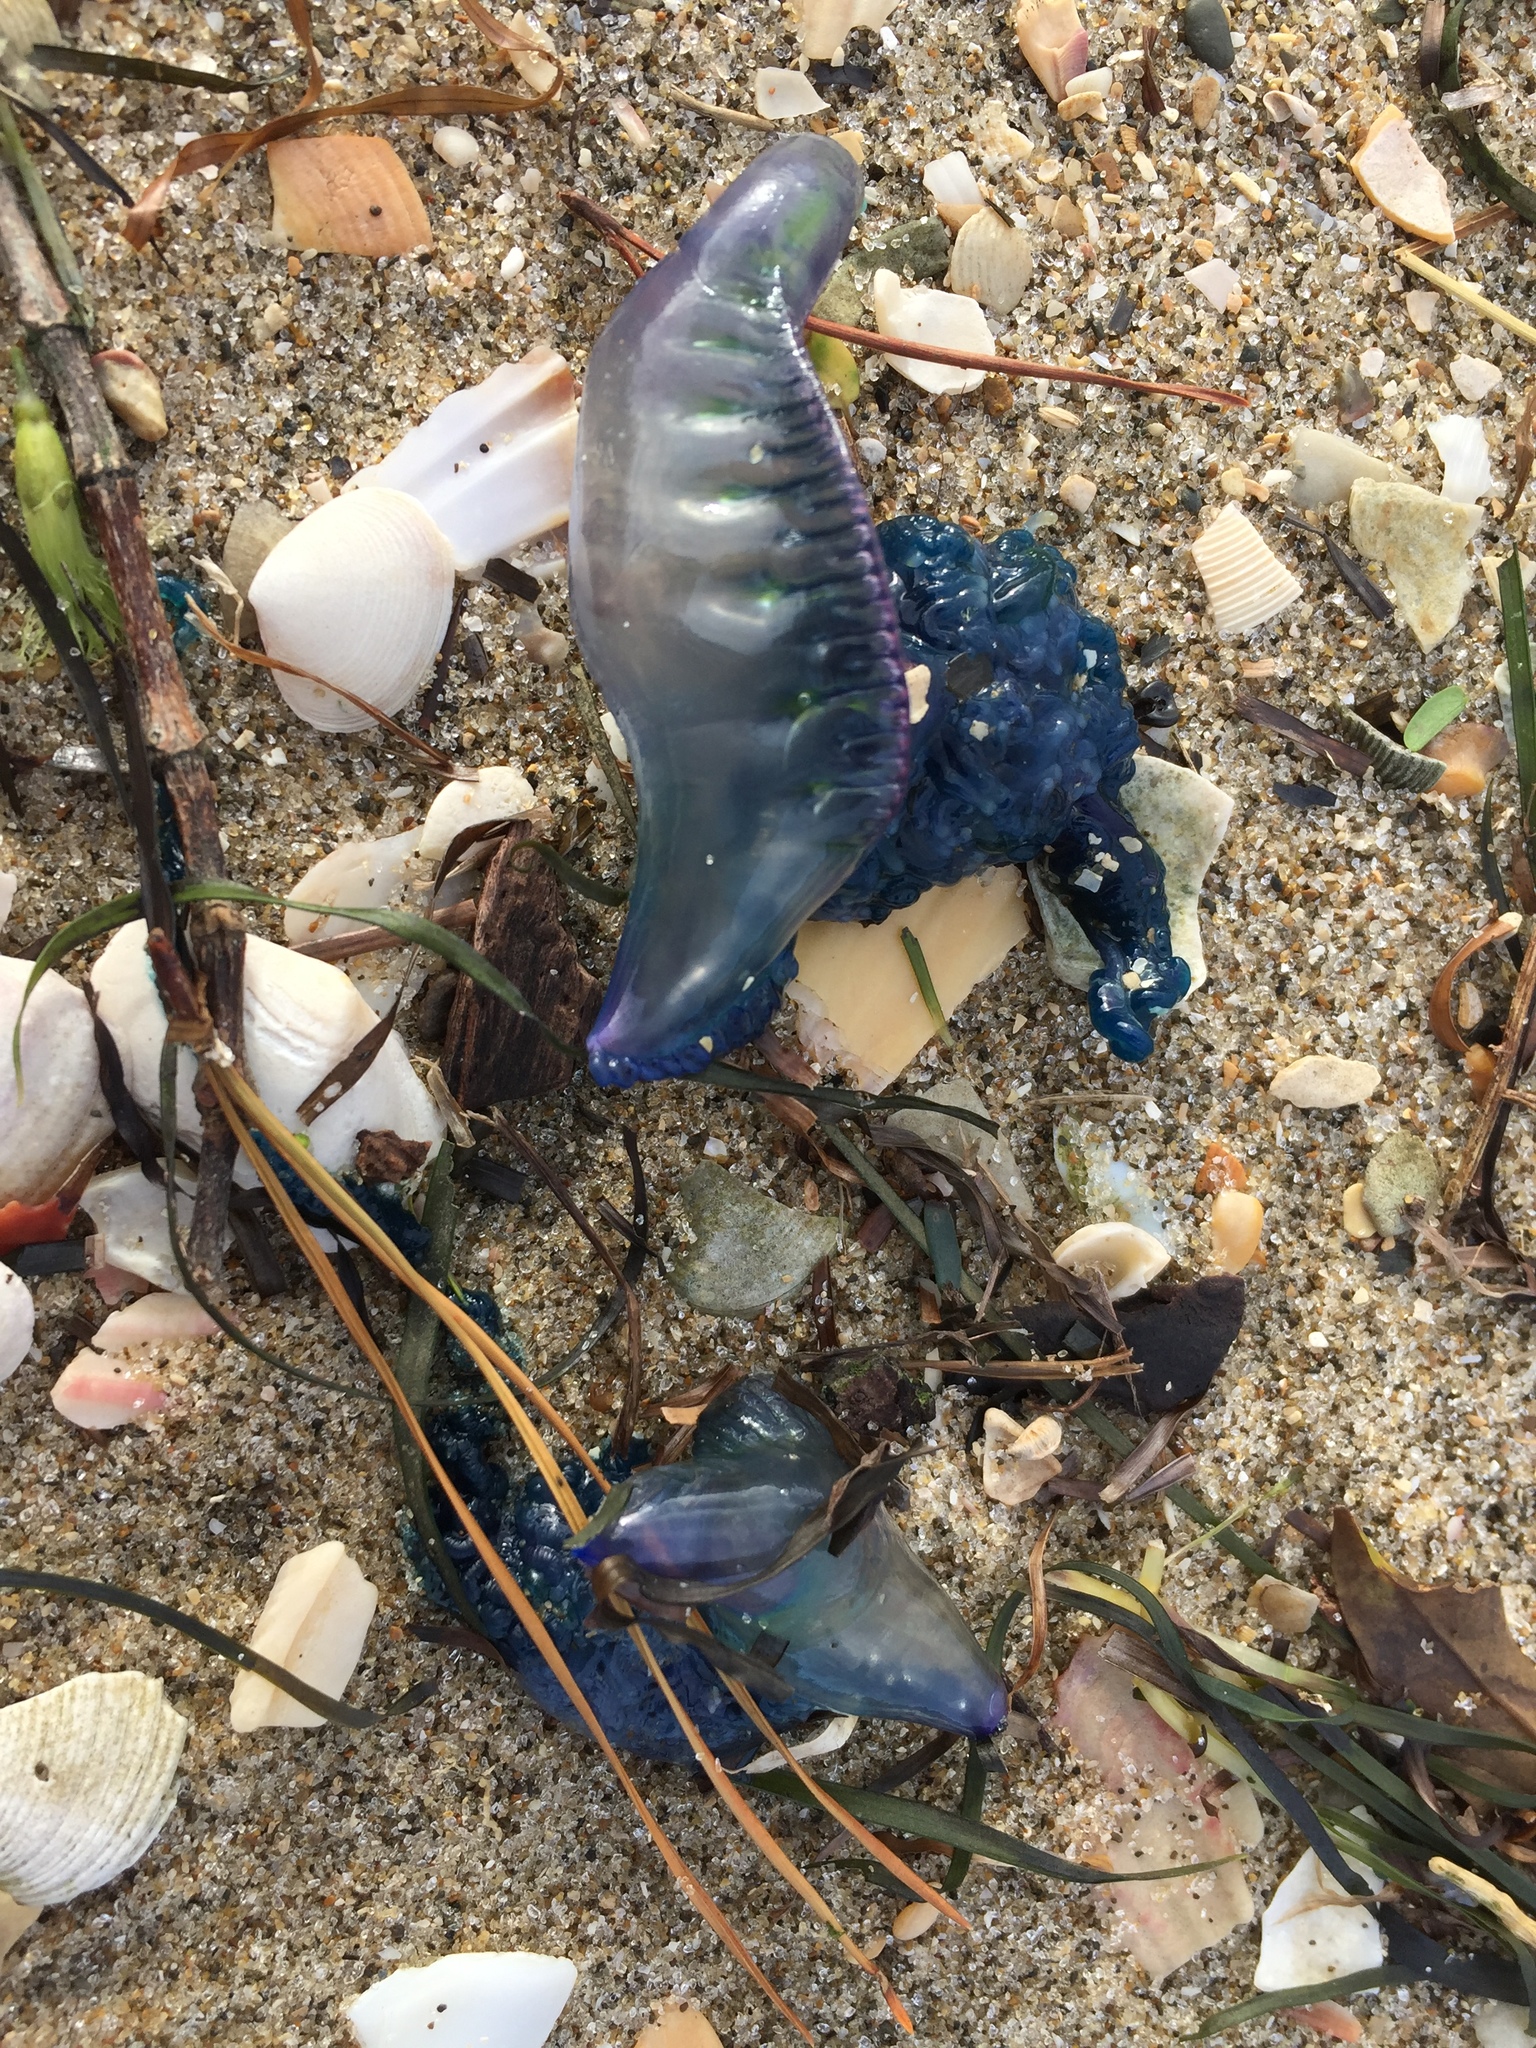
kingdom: Animalia
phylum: Cnidaria
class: Hydrozoa
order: Siphonophorae
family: Physaliidae
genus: Physalia
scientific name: Physalia physalis
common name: Portuguese man-of-war
